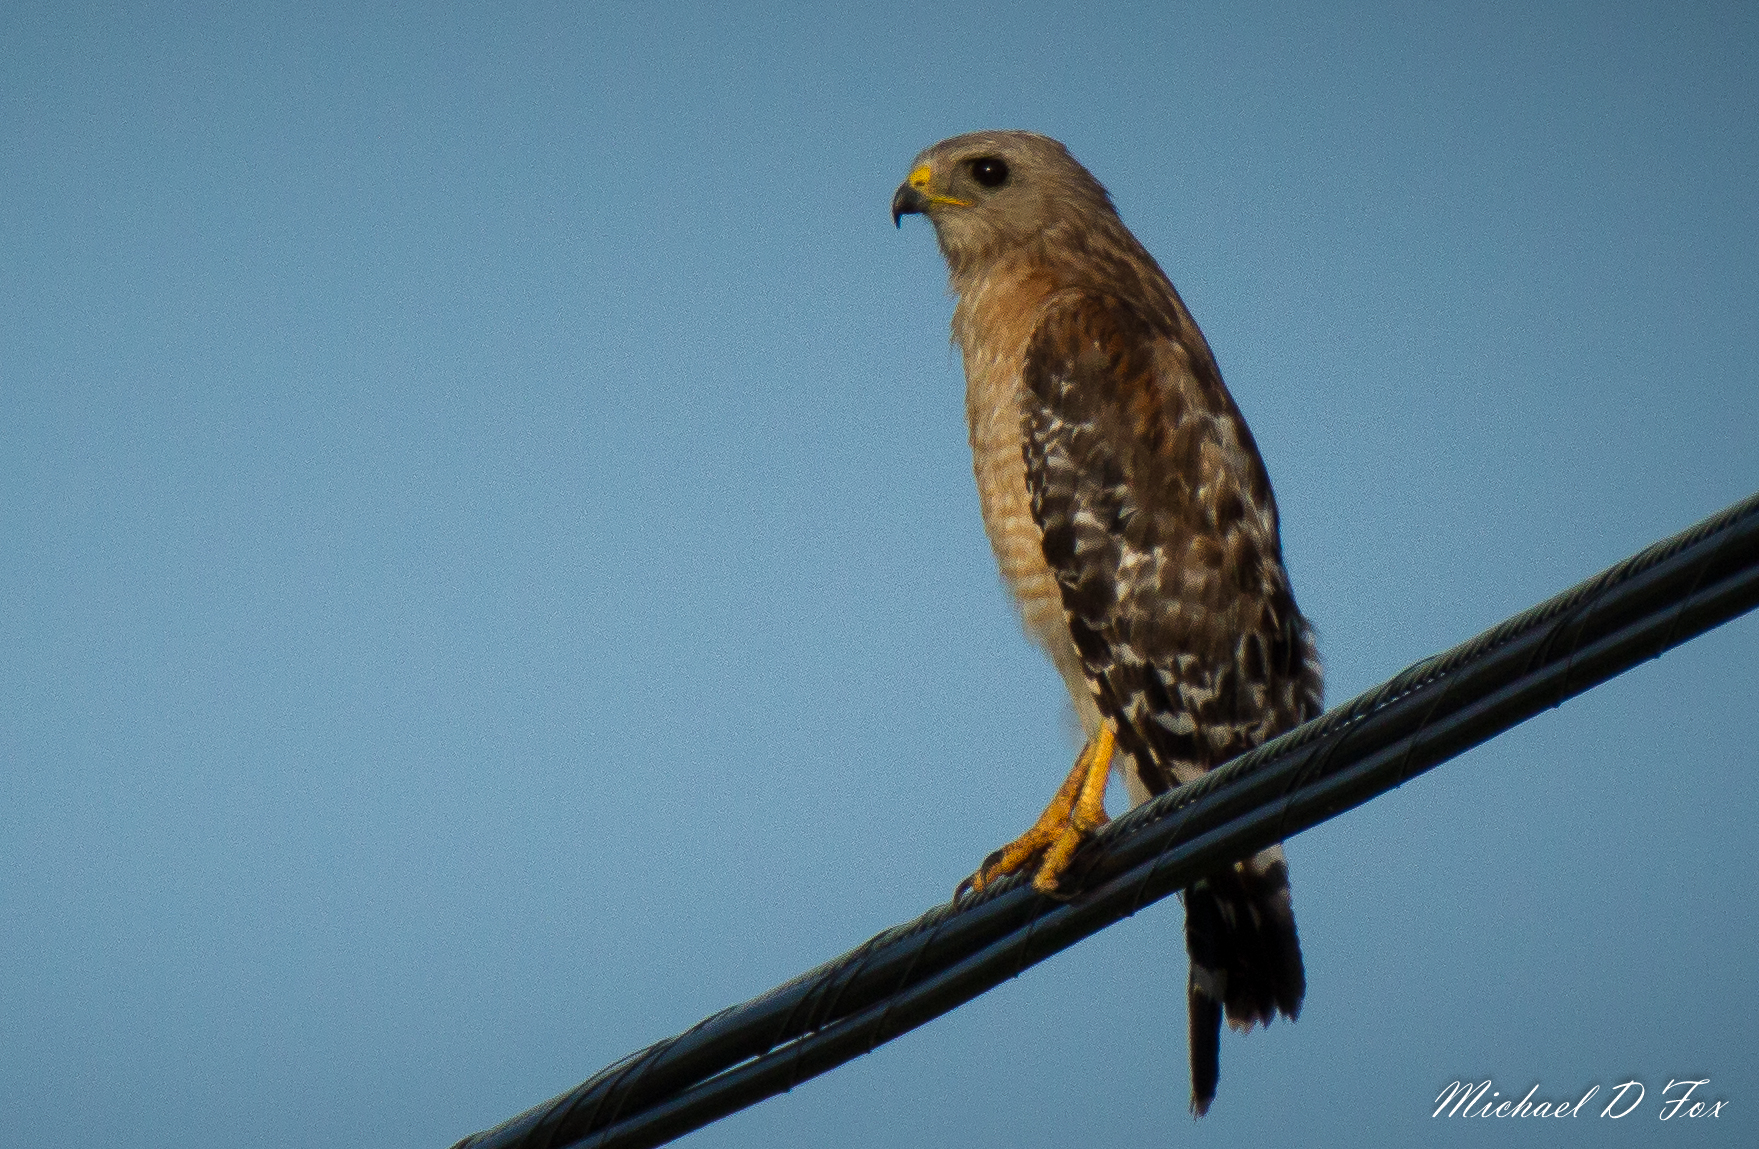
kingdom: Animalia
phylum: Chordata
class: Aves
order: Accipitriformes
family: Accipitridae
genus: Buteo
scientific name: Buteo lineatus
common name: Red-shouldered hawk
